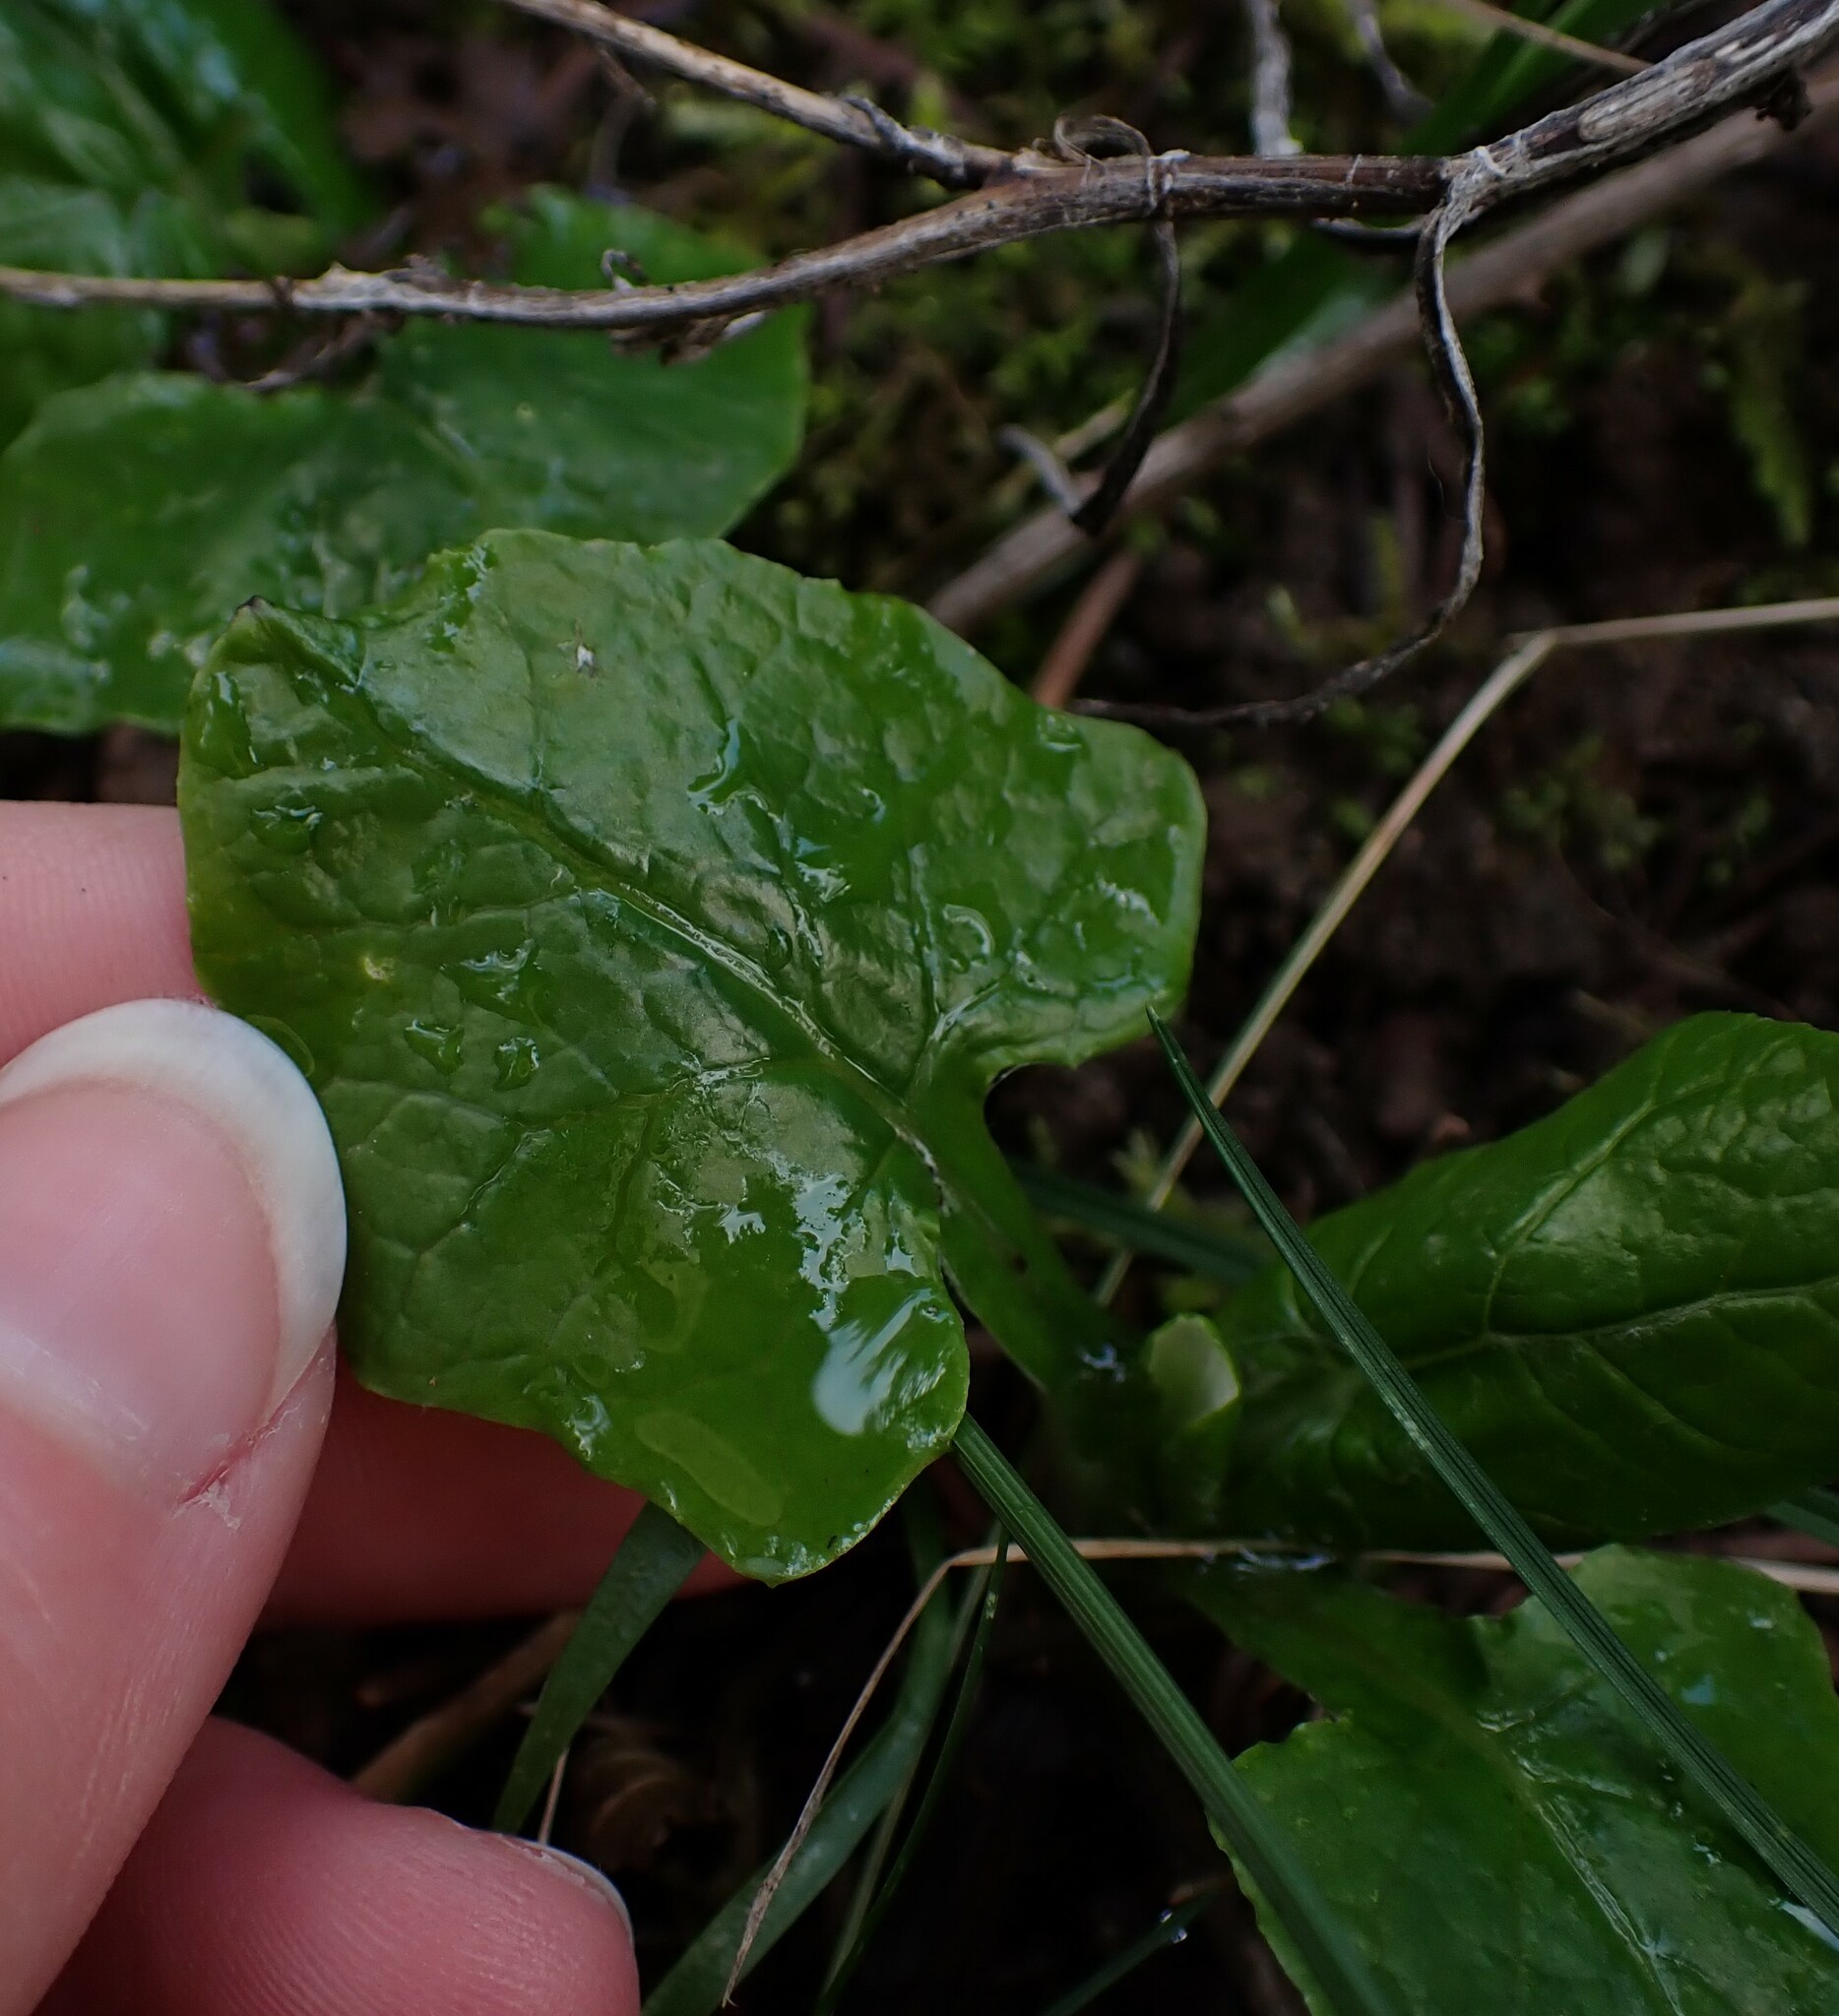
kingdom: Plantae
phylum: Tracheophyta
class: Magnoliopsida
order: Asterales
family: Asteraceae
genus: Adenocaulon
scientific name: Adenocaulon bicolor
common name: Trailplant
